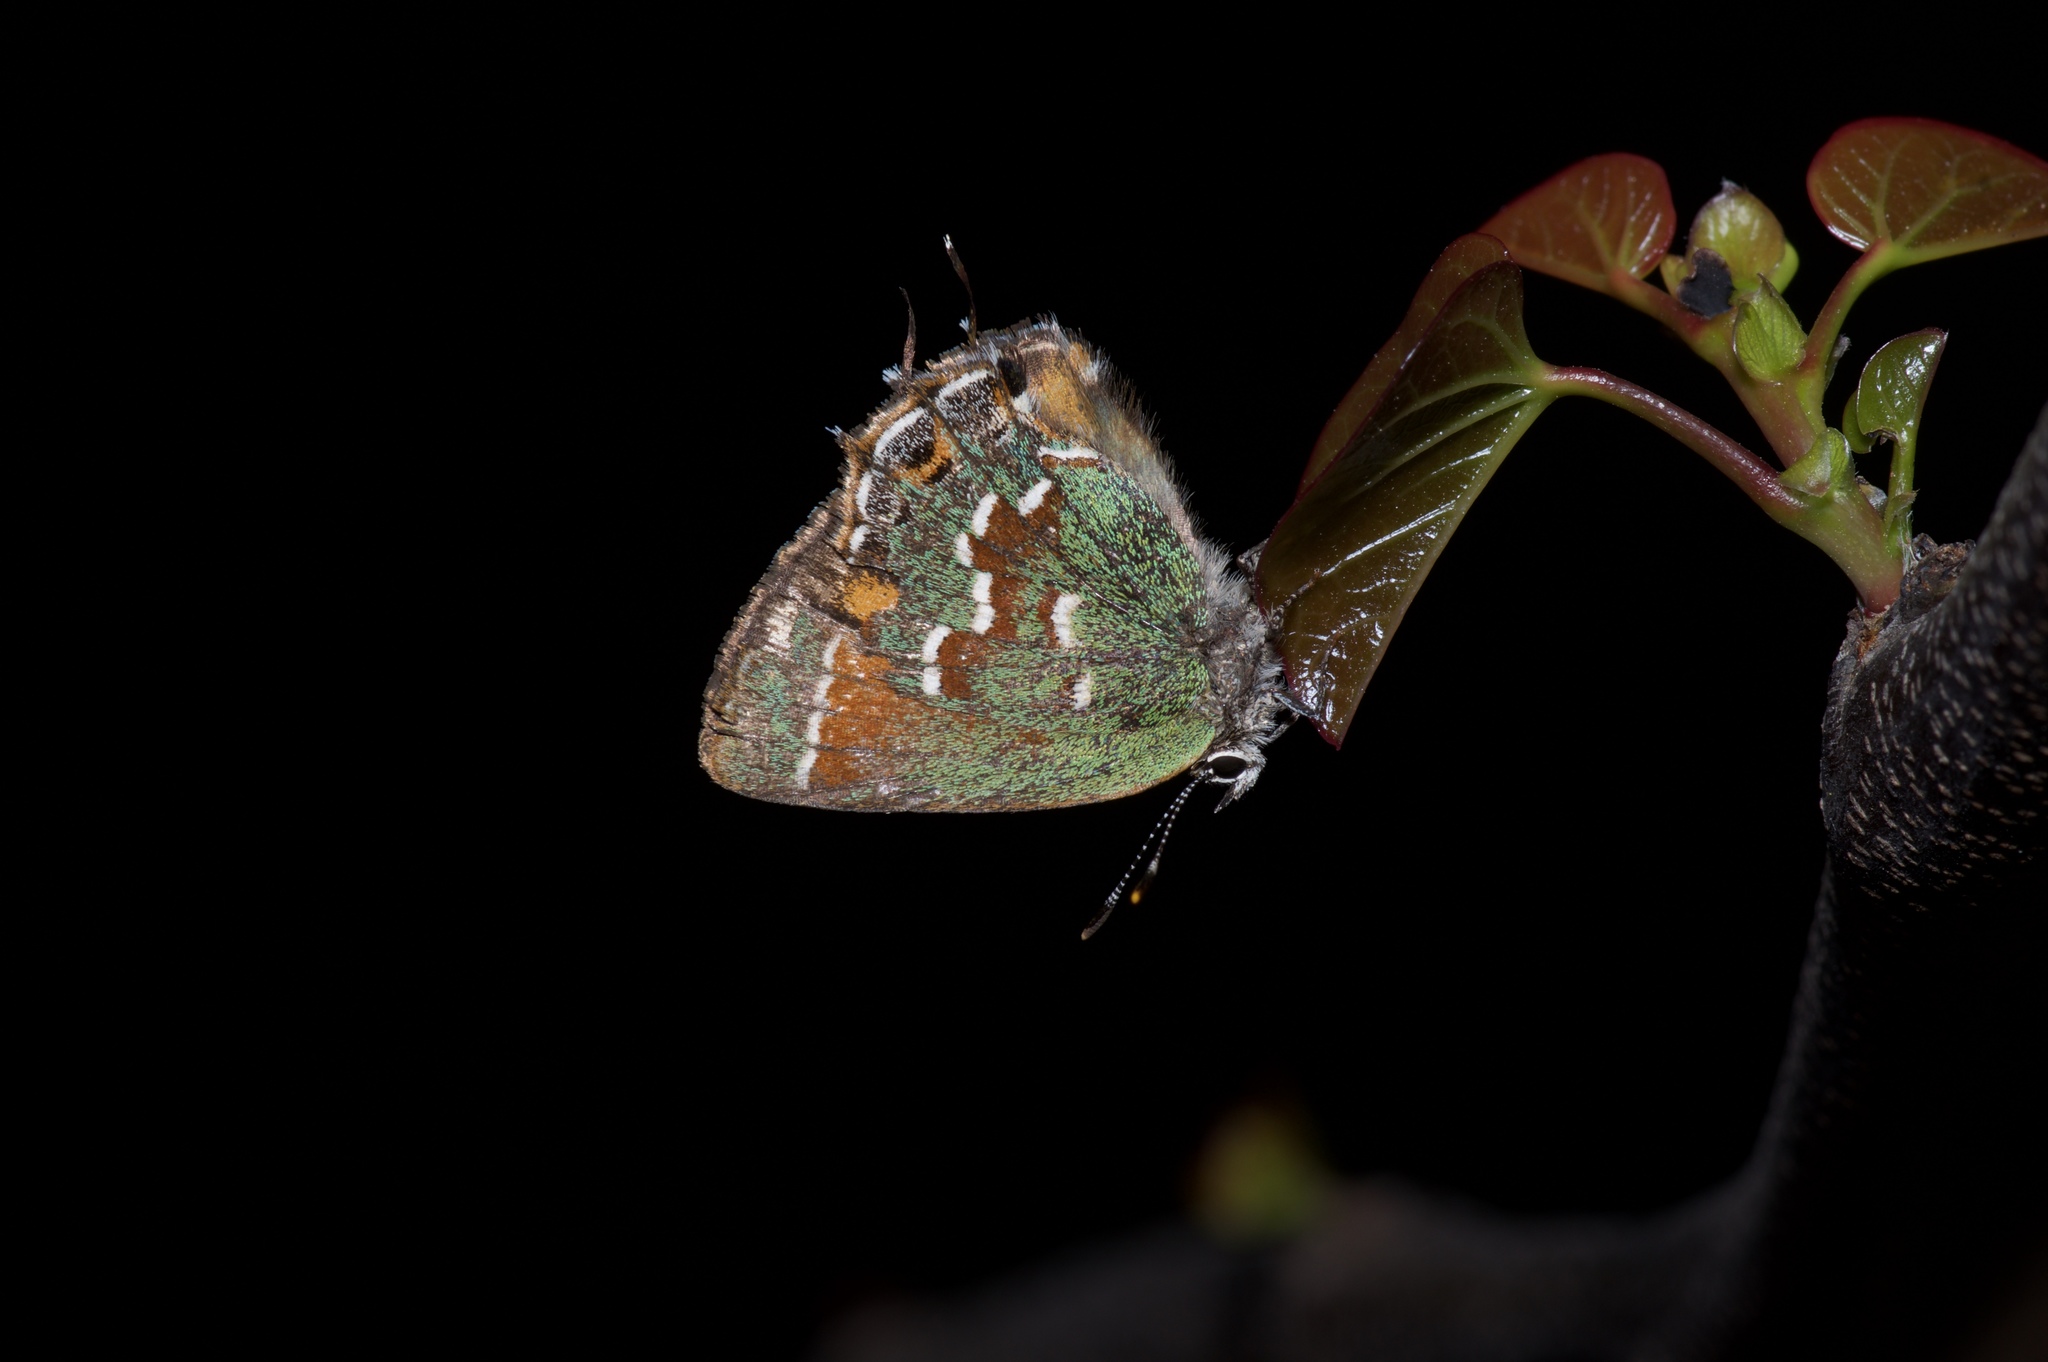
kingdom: Animalia
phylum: Arthropoda
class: Insecta
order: Lepidoptera
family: Lycaenidae
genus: Mitoura
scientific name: Mitoura gryneus
